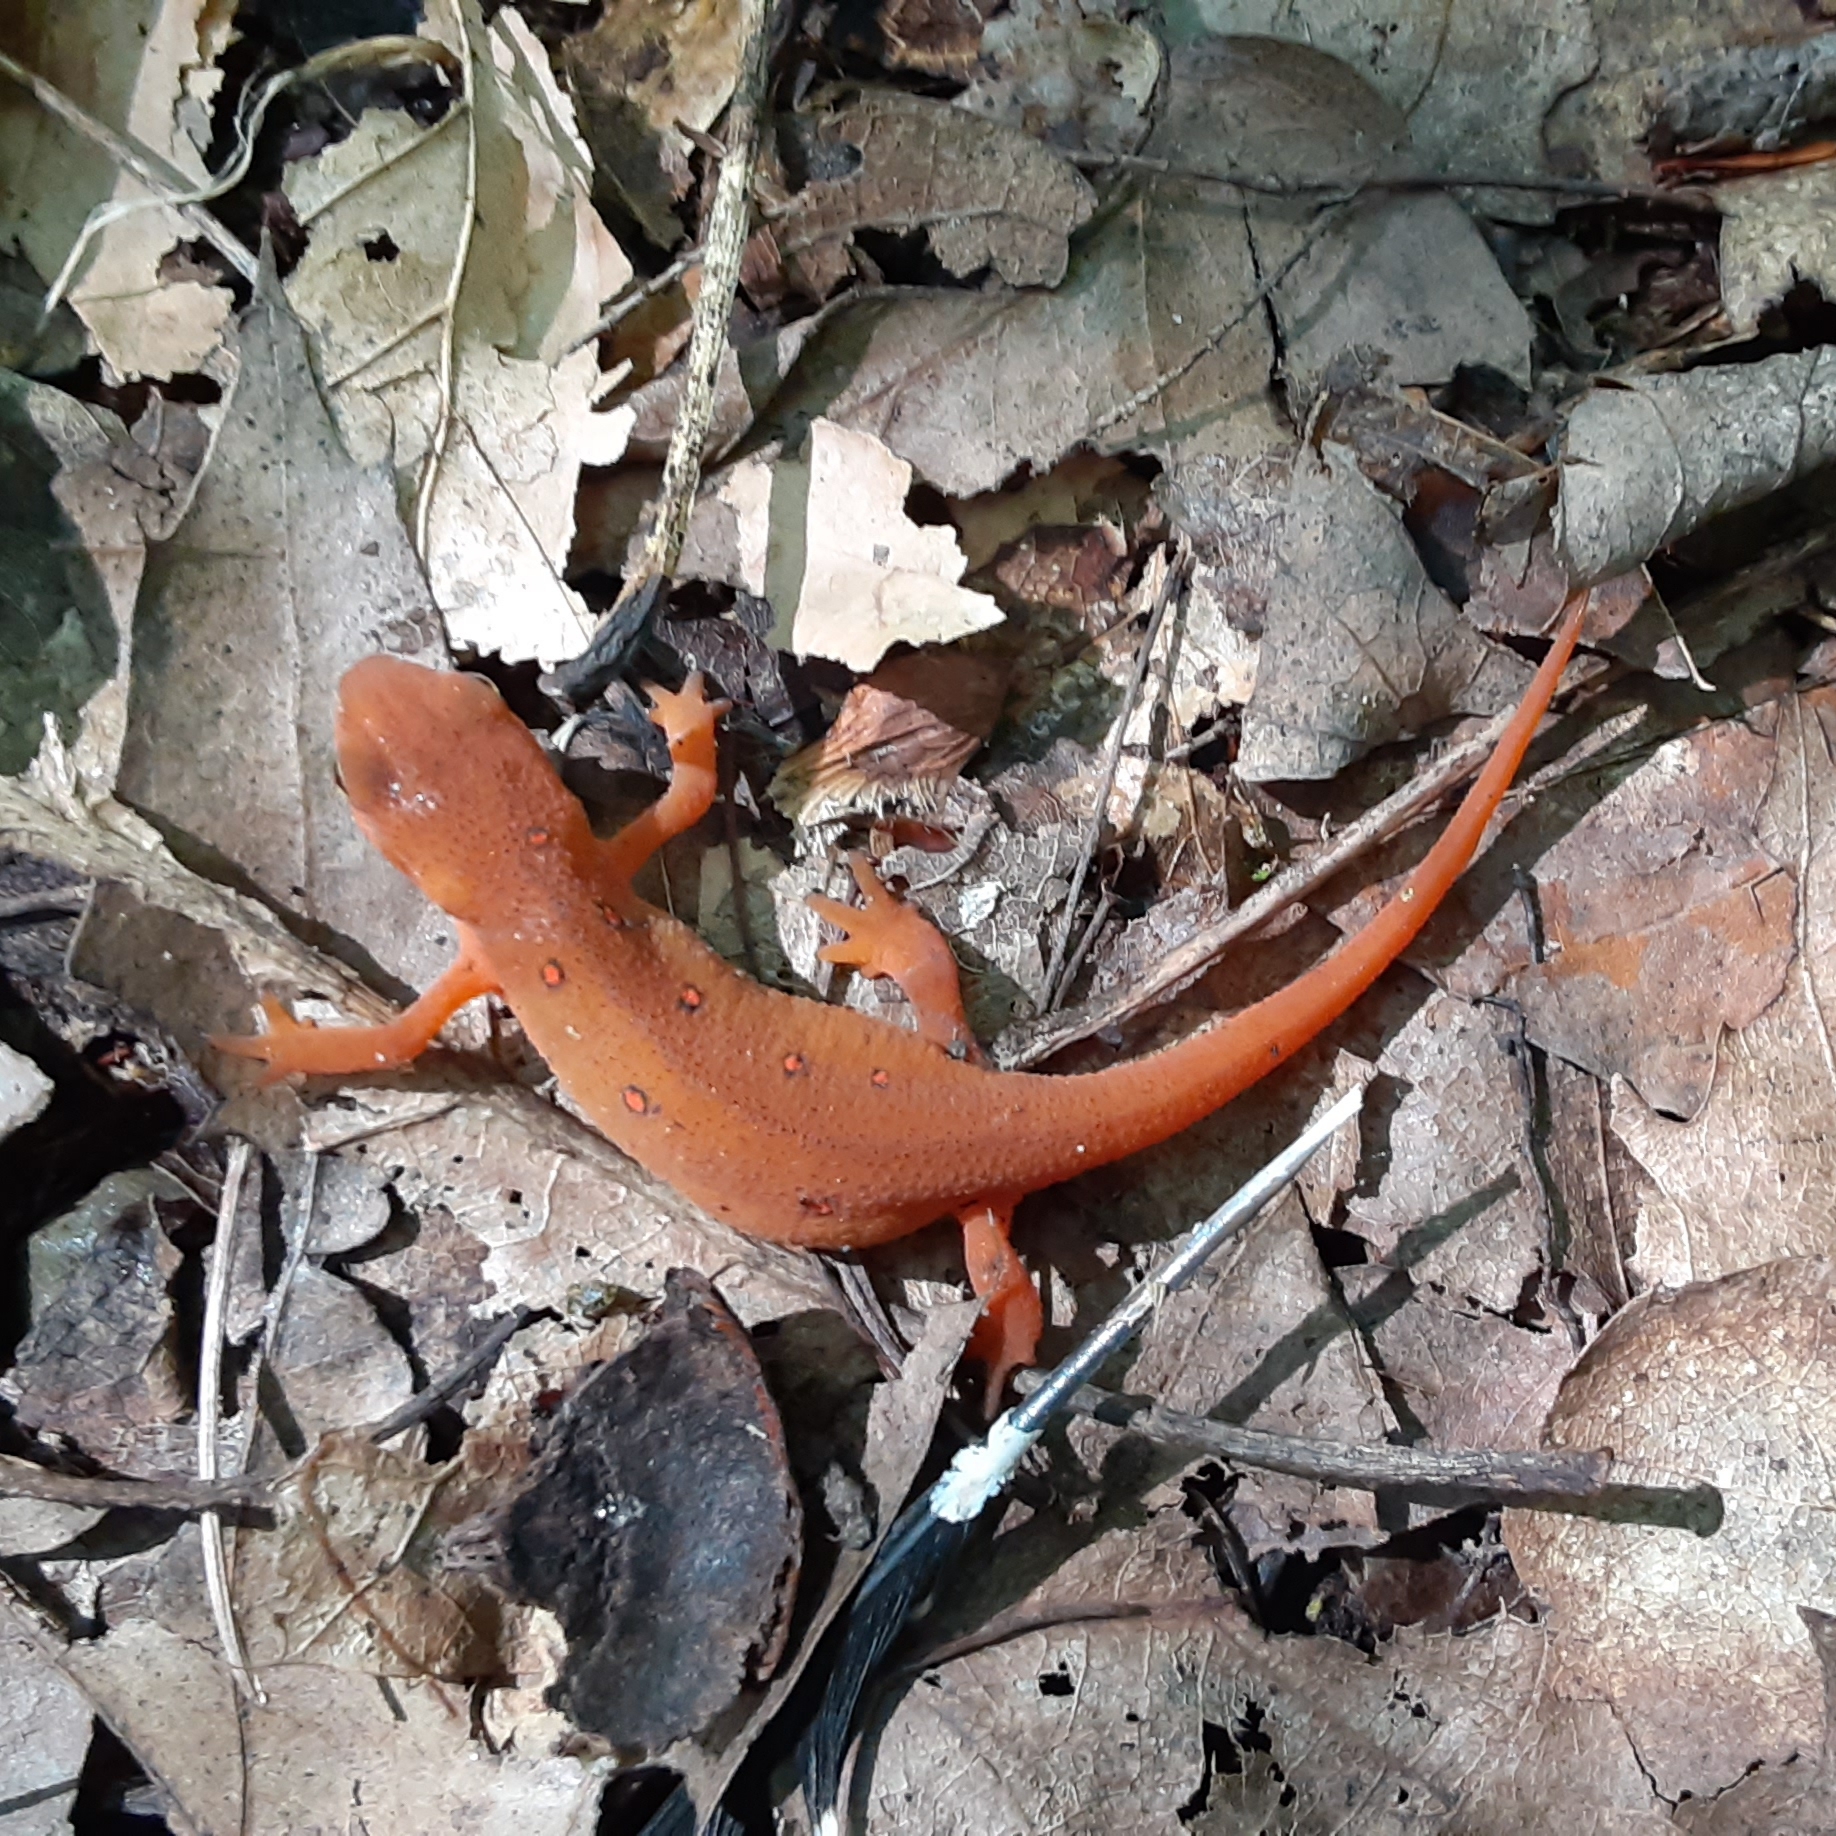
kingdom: Animalia
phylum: Chordata
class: Amphibia
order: Caudata
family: Salamandridae
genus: Notophthalmus
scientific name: Notophthalmus viridescens
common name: Eastern newt
